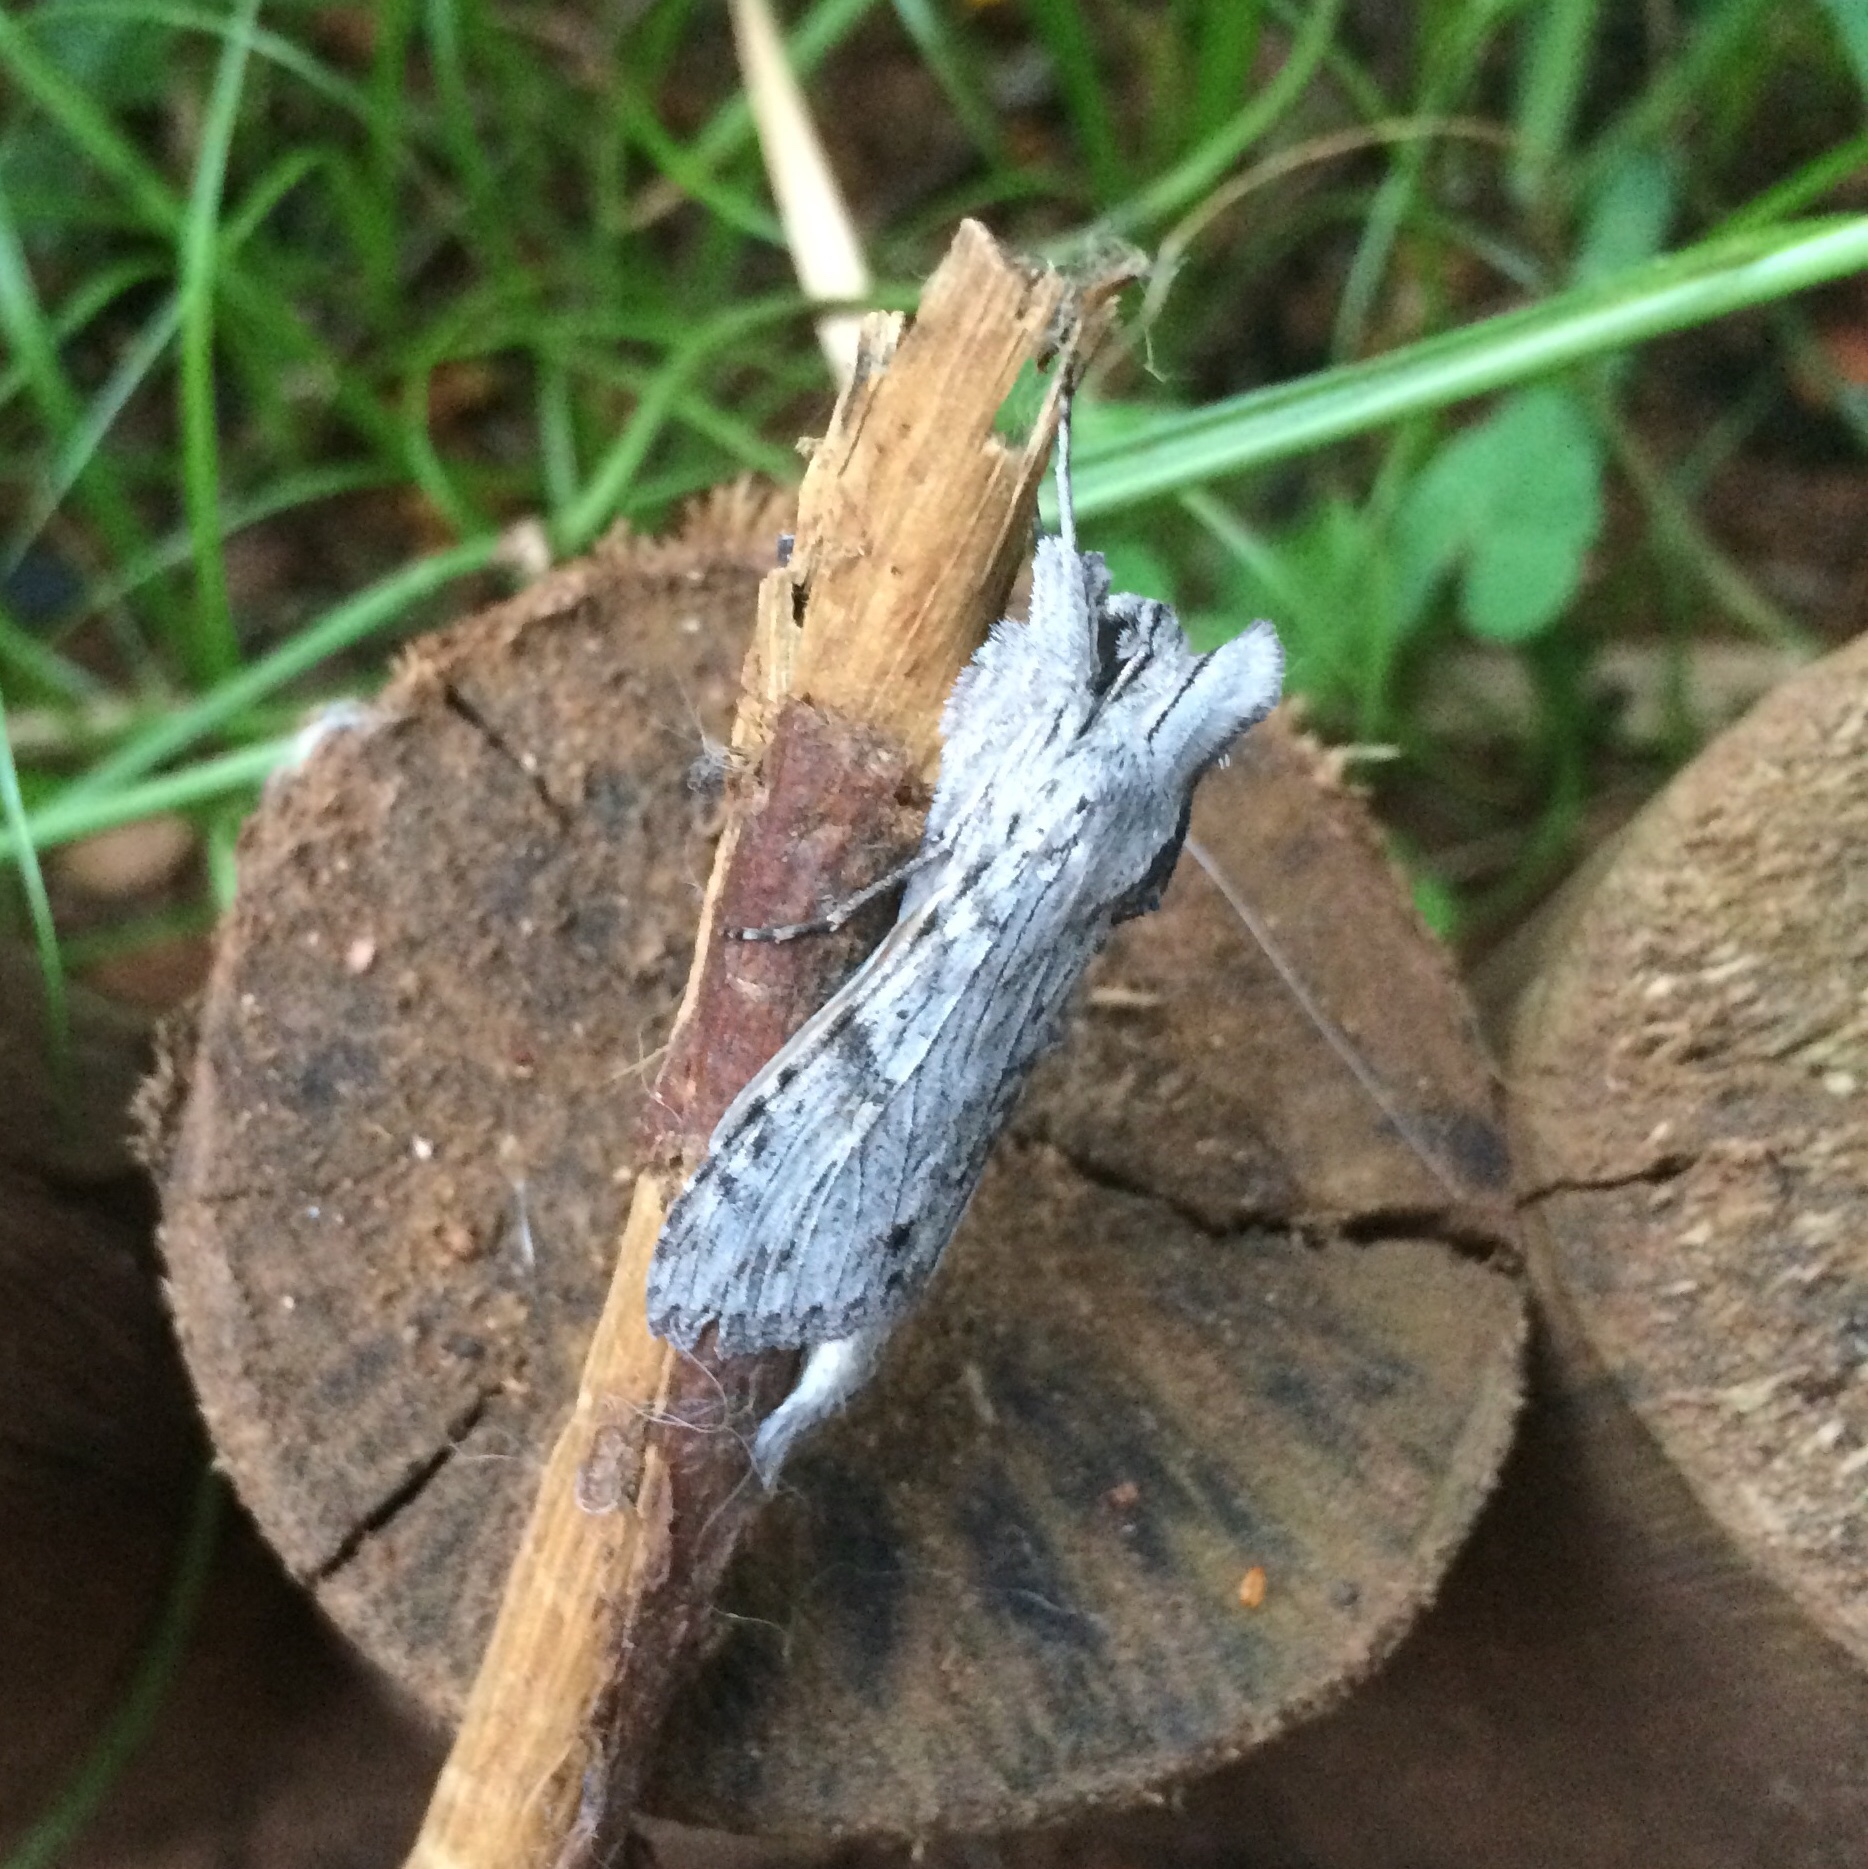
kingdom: Animalia
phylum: Arthropoda
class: Insecta
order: Lepidoptera
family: Noctuidae
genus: Cucullia
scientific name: Cucullia inaequalis
